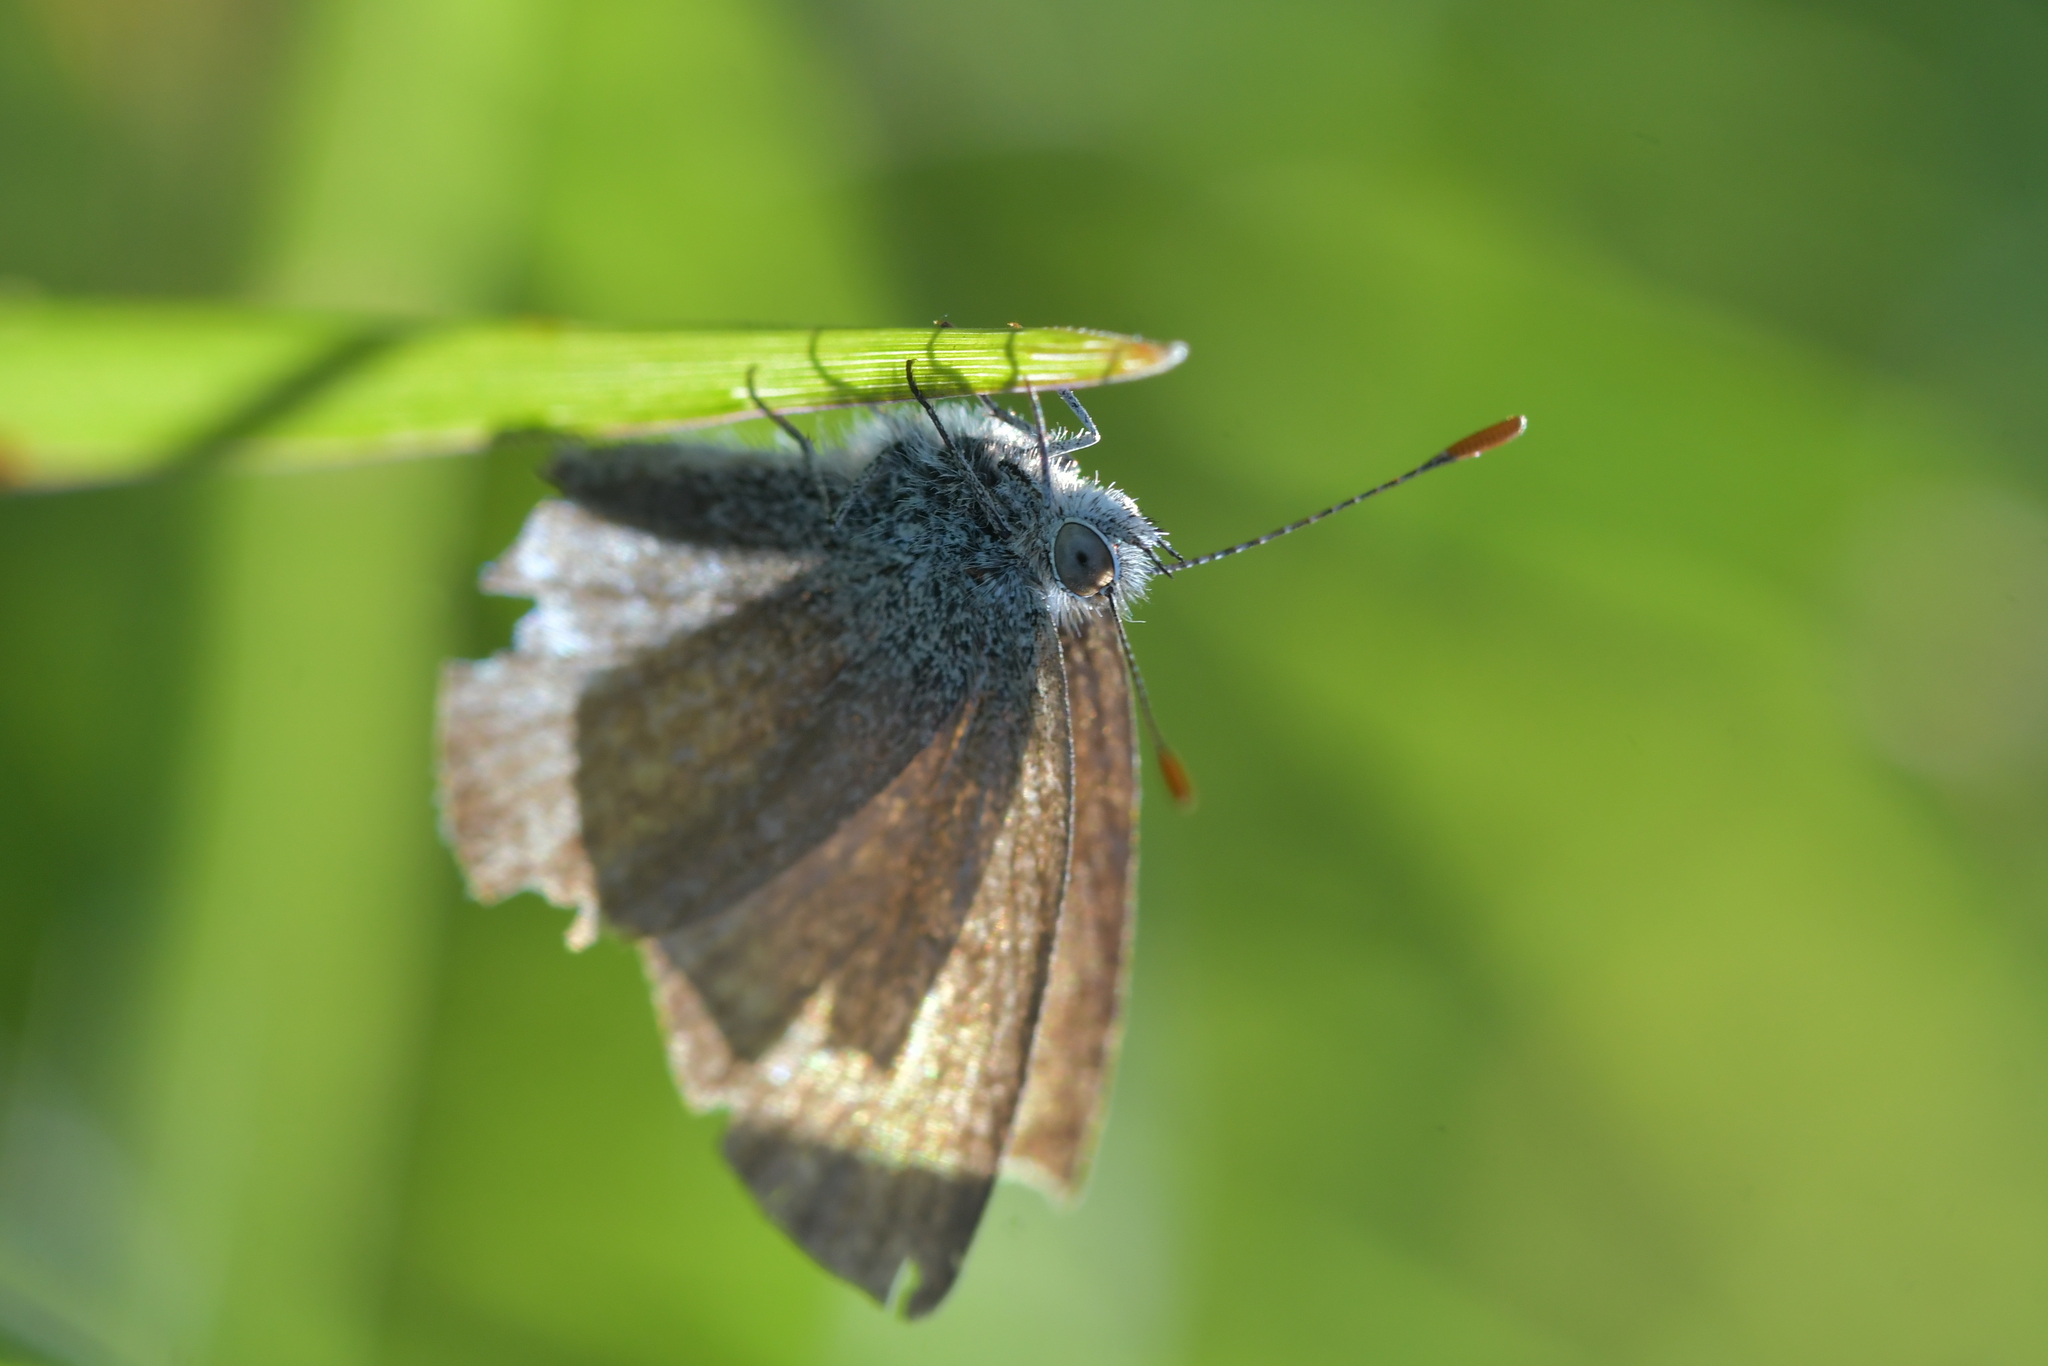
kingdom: Animalia
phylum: Arthropoda
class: Insecta
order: Lepidoptera
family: Lycaenidae
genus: Zizina
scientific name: Zizina labradus
